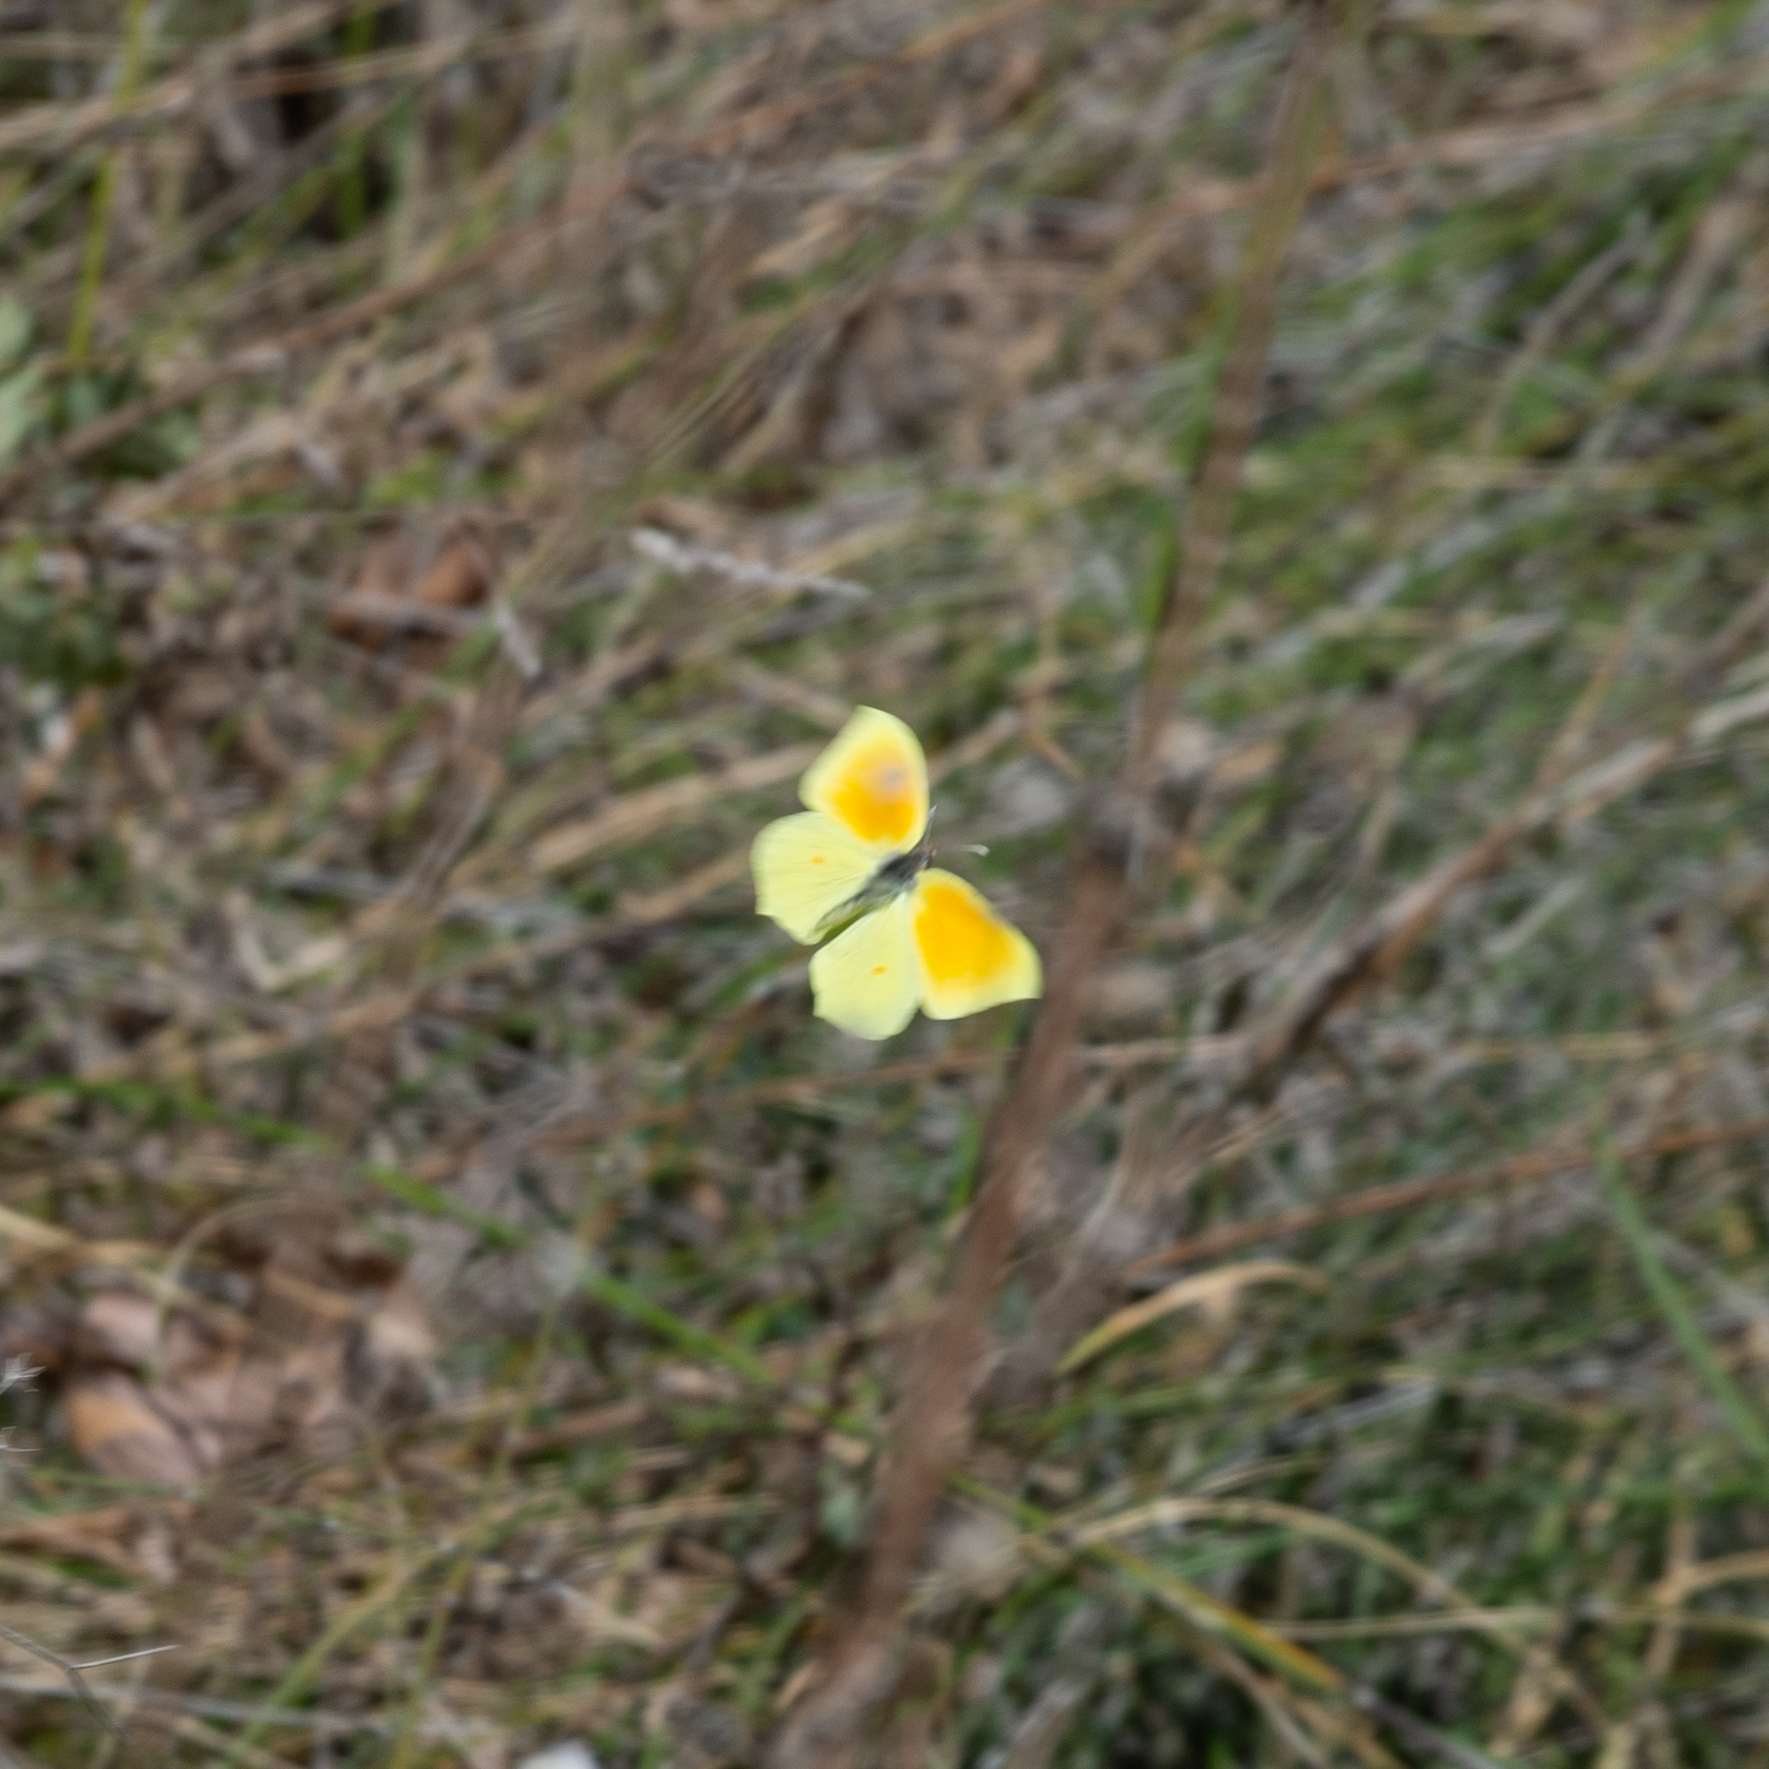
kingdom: Animalia
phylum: Arthropoda
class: Insecta
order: Lepidoptera
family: Pieridae
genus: Gonepteryx
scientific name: Gonepteryx cleopatra
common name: Cleopatra
